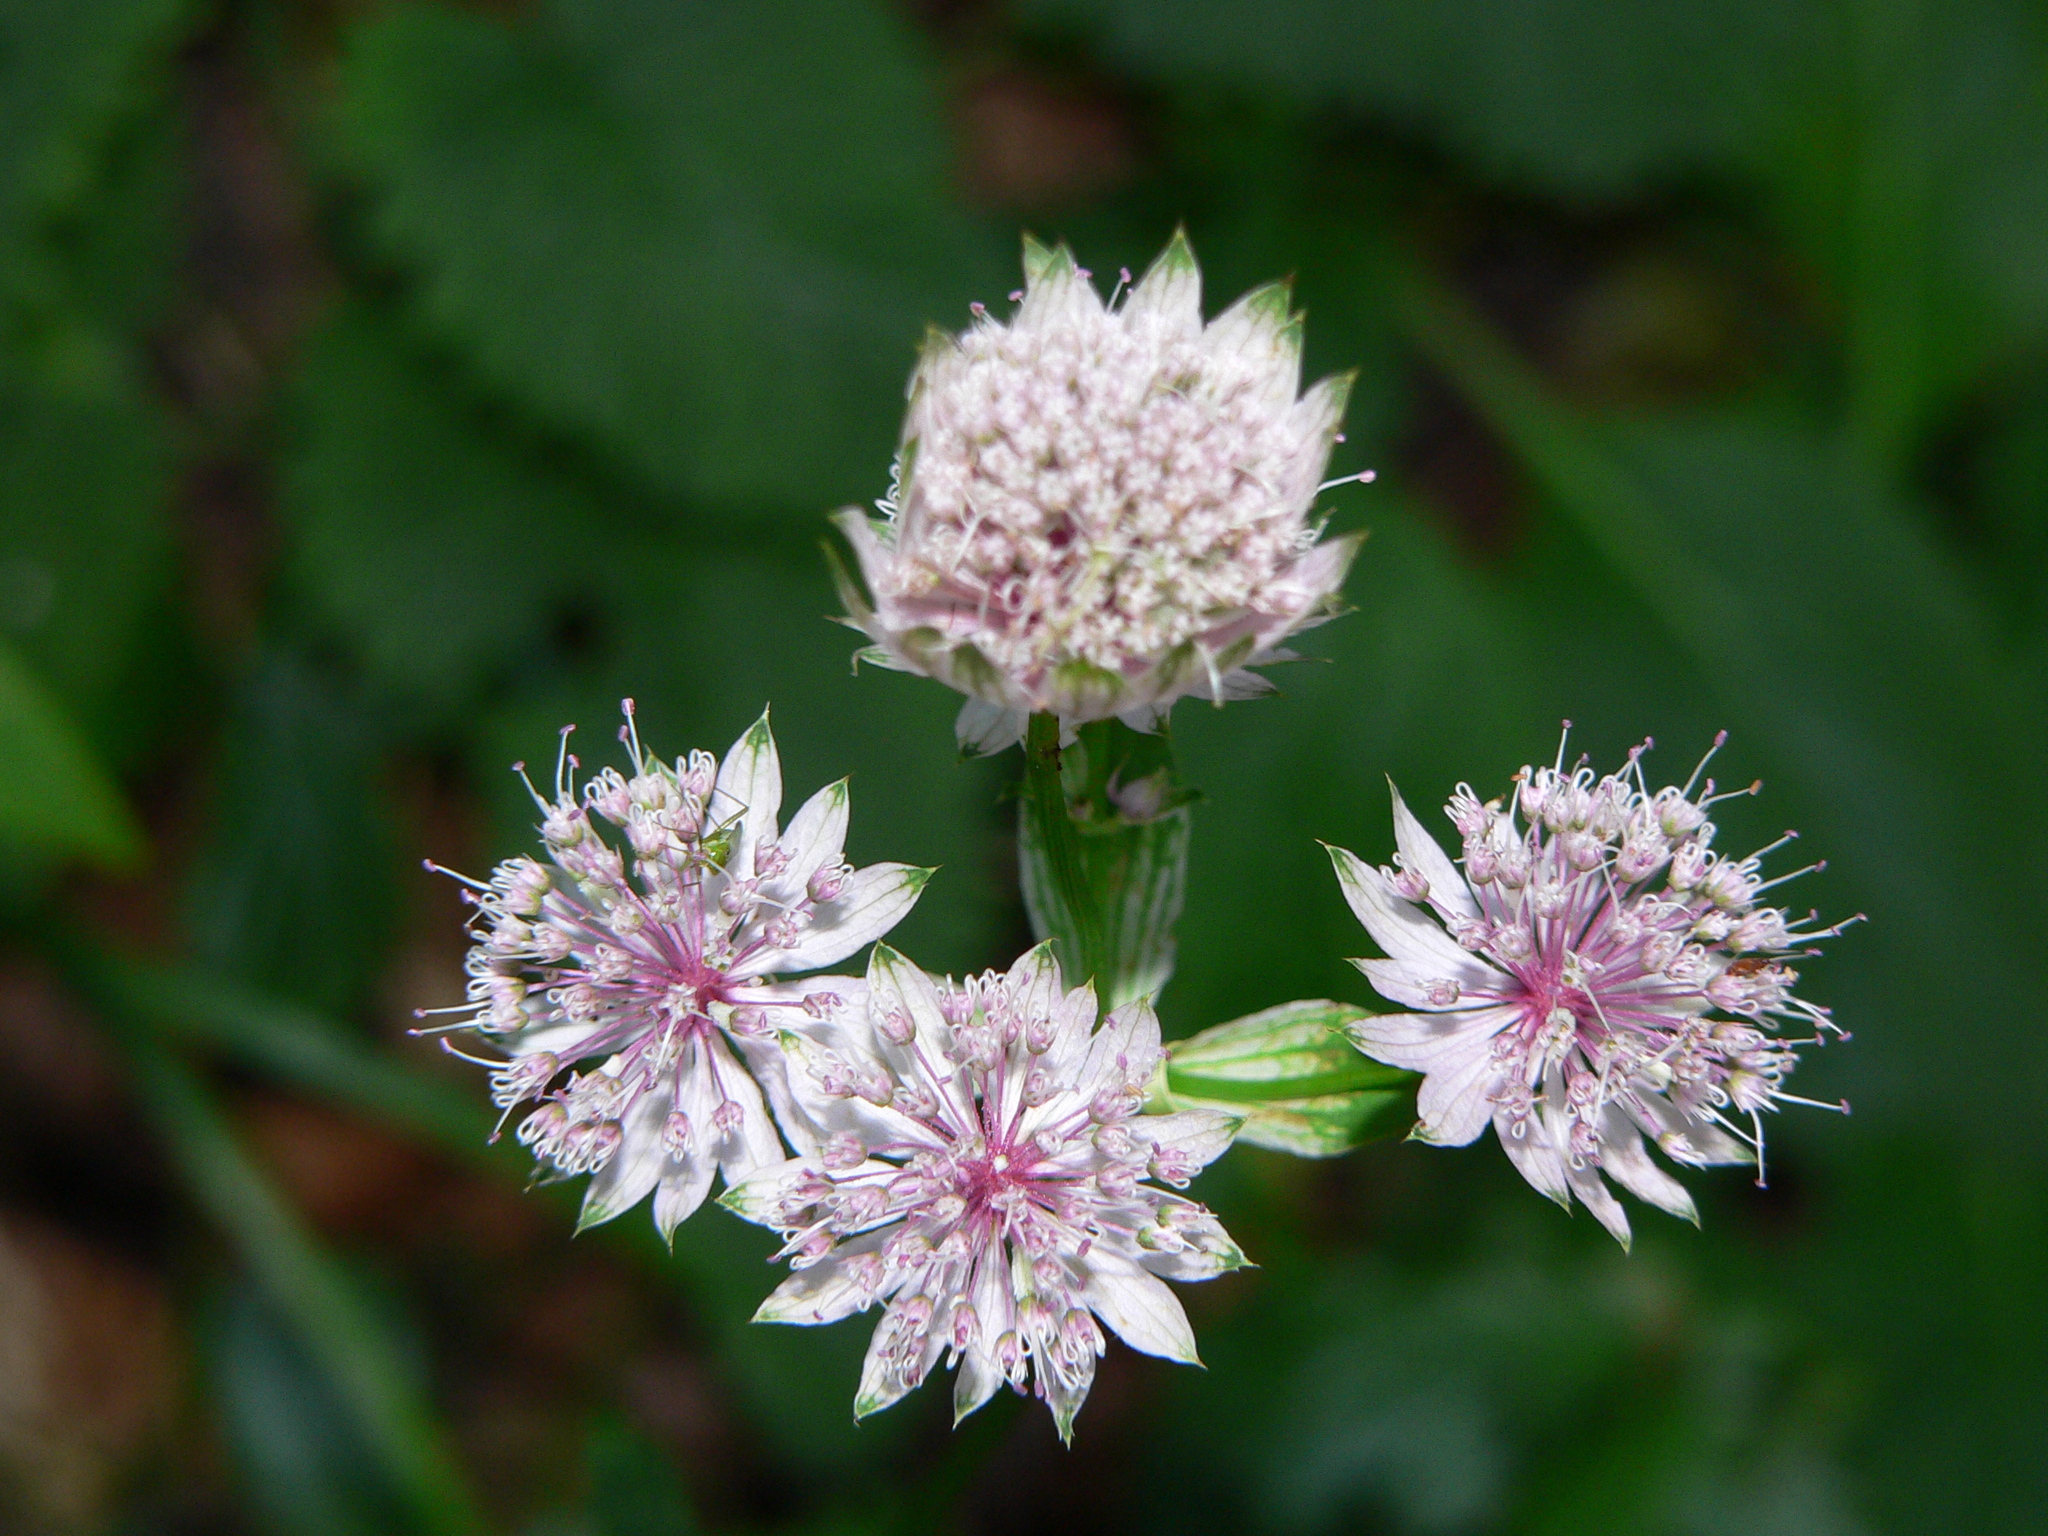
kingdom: Plantae
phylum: Tracheophyta
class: Magnoliopsida
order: Apiales
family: Apiaceae
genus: Astrantia
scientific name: Astrantia major
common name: Greater masterwort
